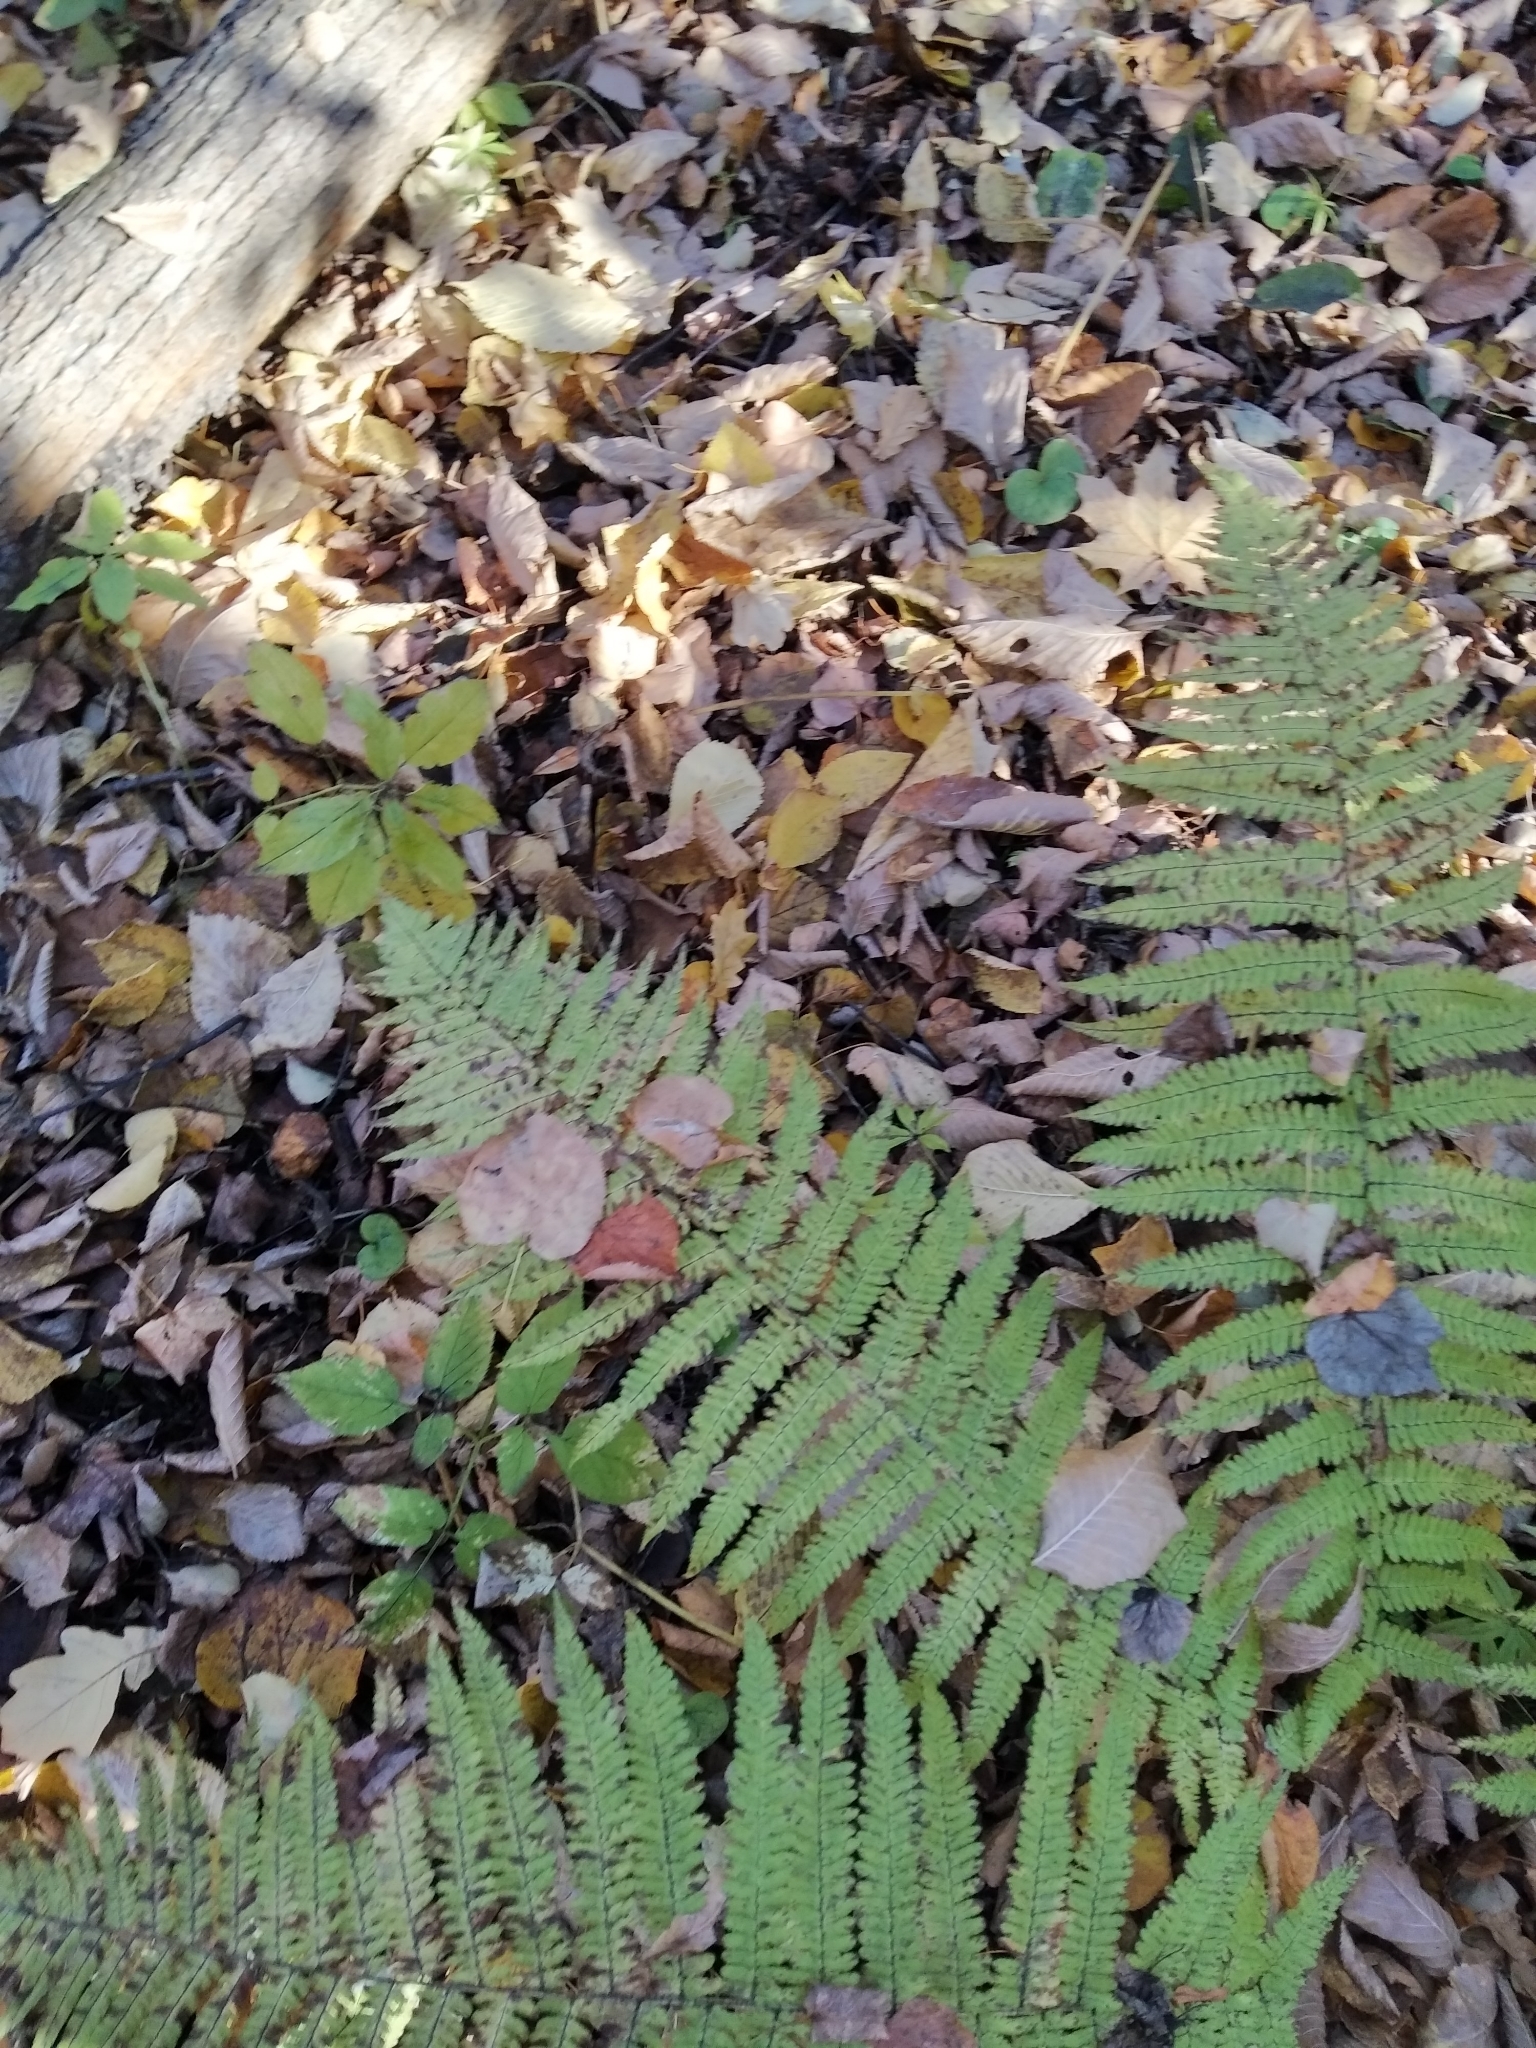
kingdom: Plantae
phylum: Tracheophyta
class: Polypodiopsida
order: Polypodiales
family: Dryopteridaceae
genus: Dryopteris
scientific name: Dryopteris filix-mas
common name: Male fern
